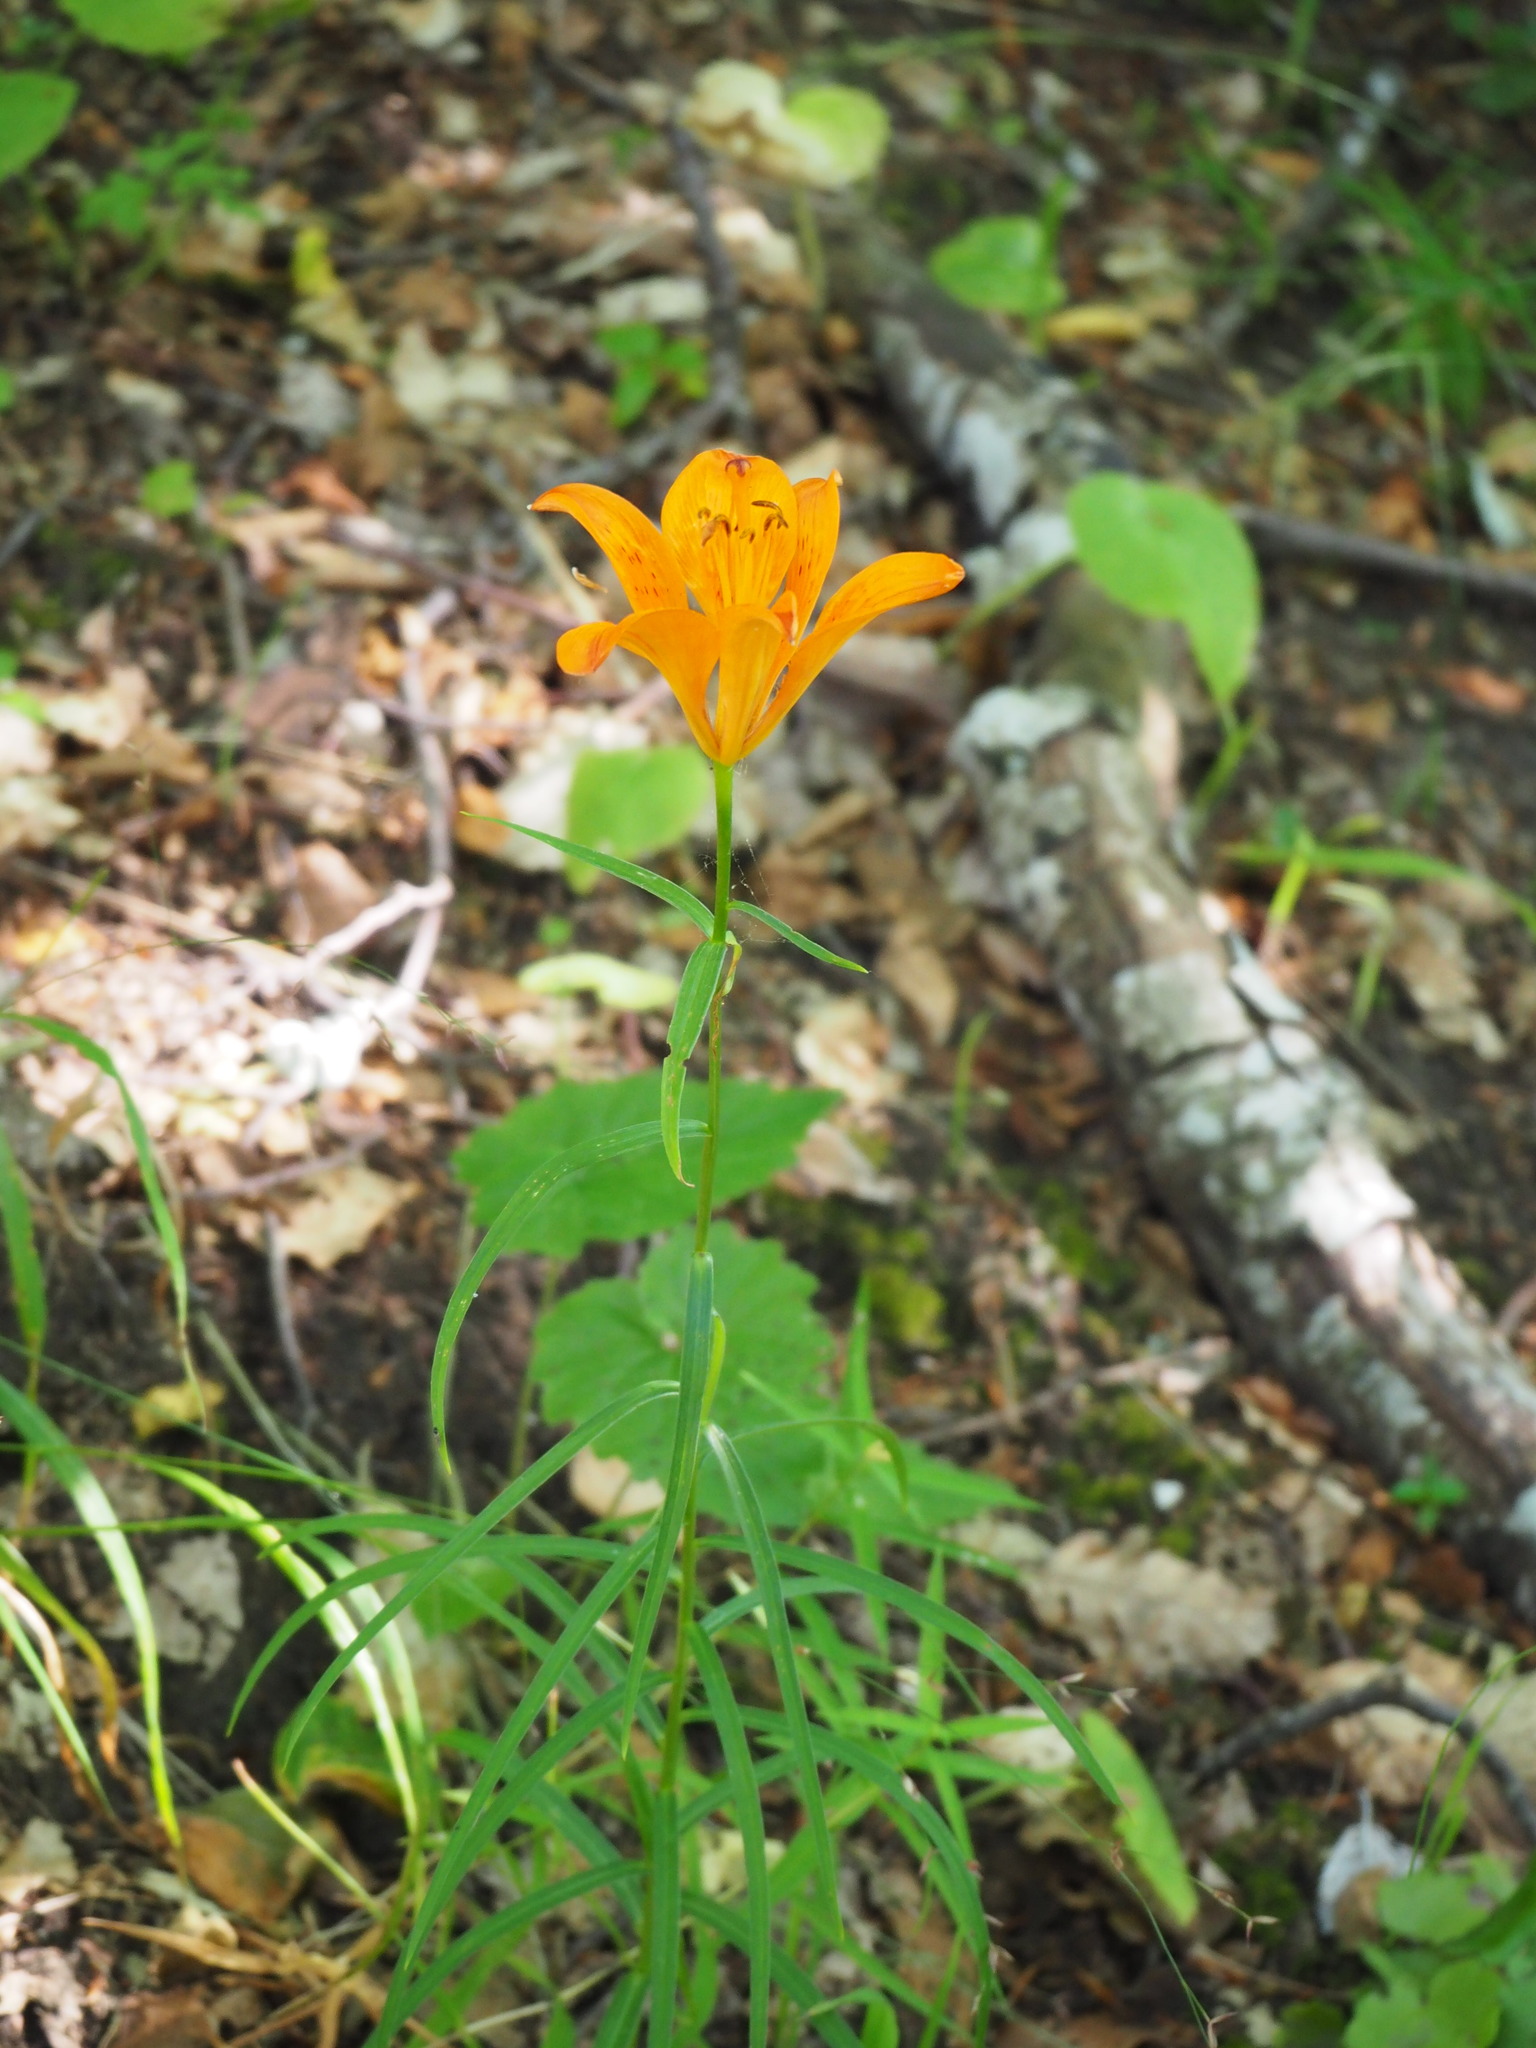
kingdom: Plantae
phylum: Tracheophyta
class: Liliopsida
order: Liliales
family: Liliaceae
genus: Lilium
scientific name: Lilium bulbiferum
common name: Orange lily
